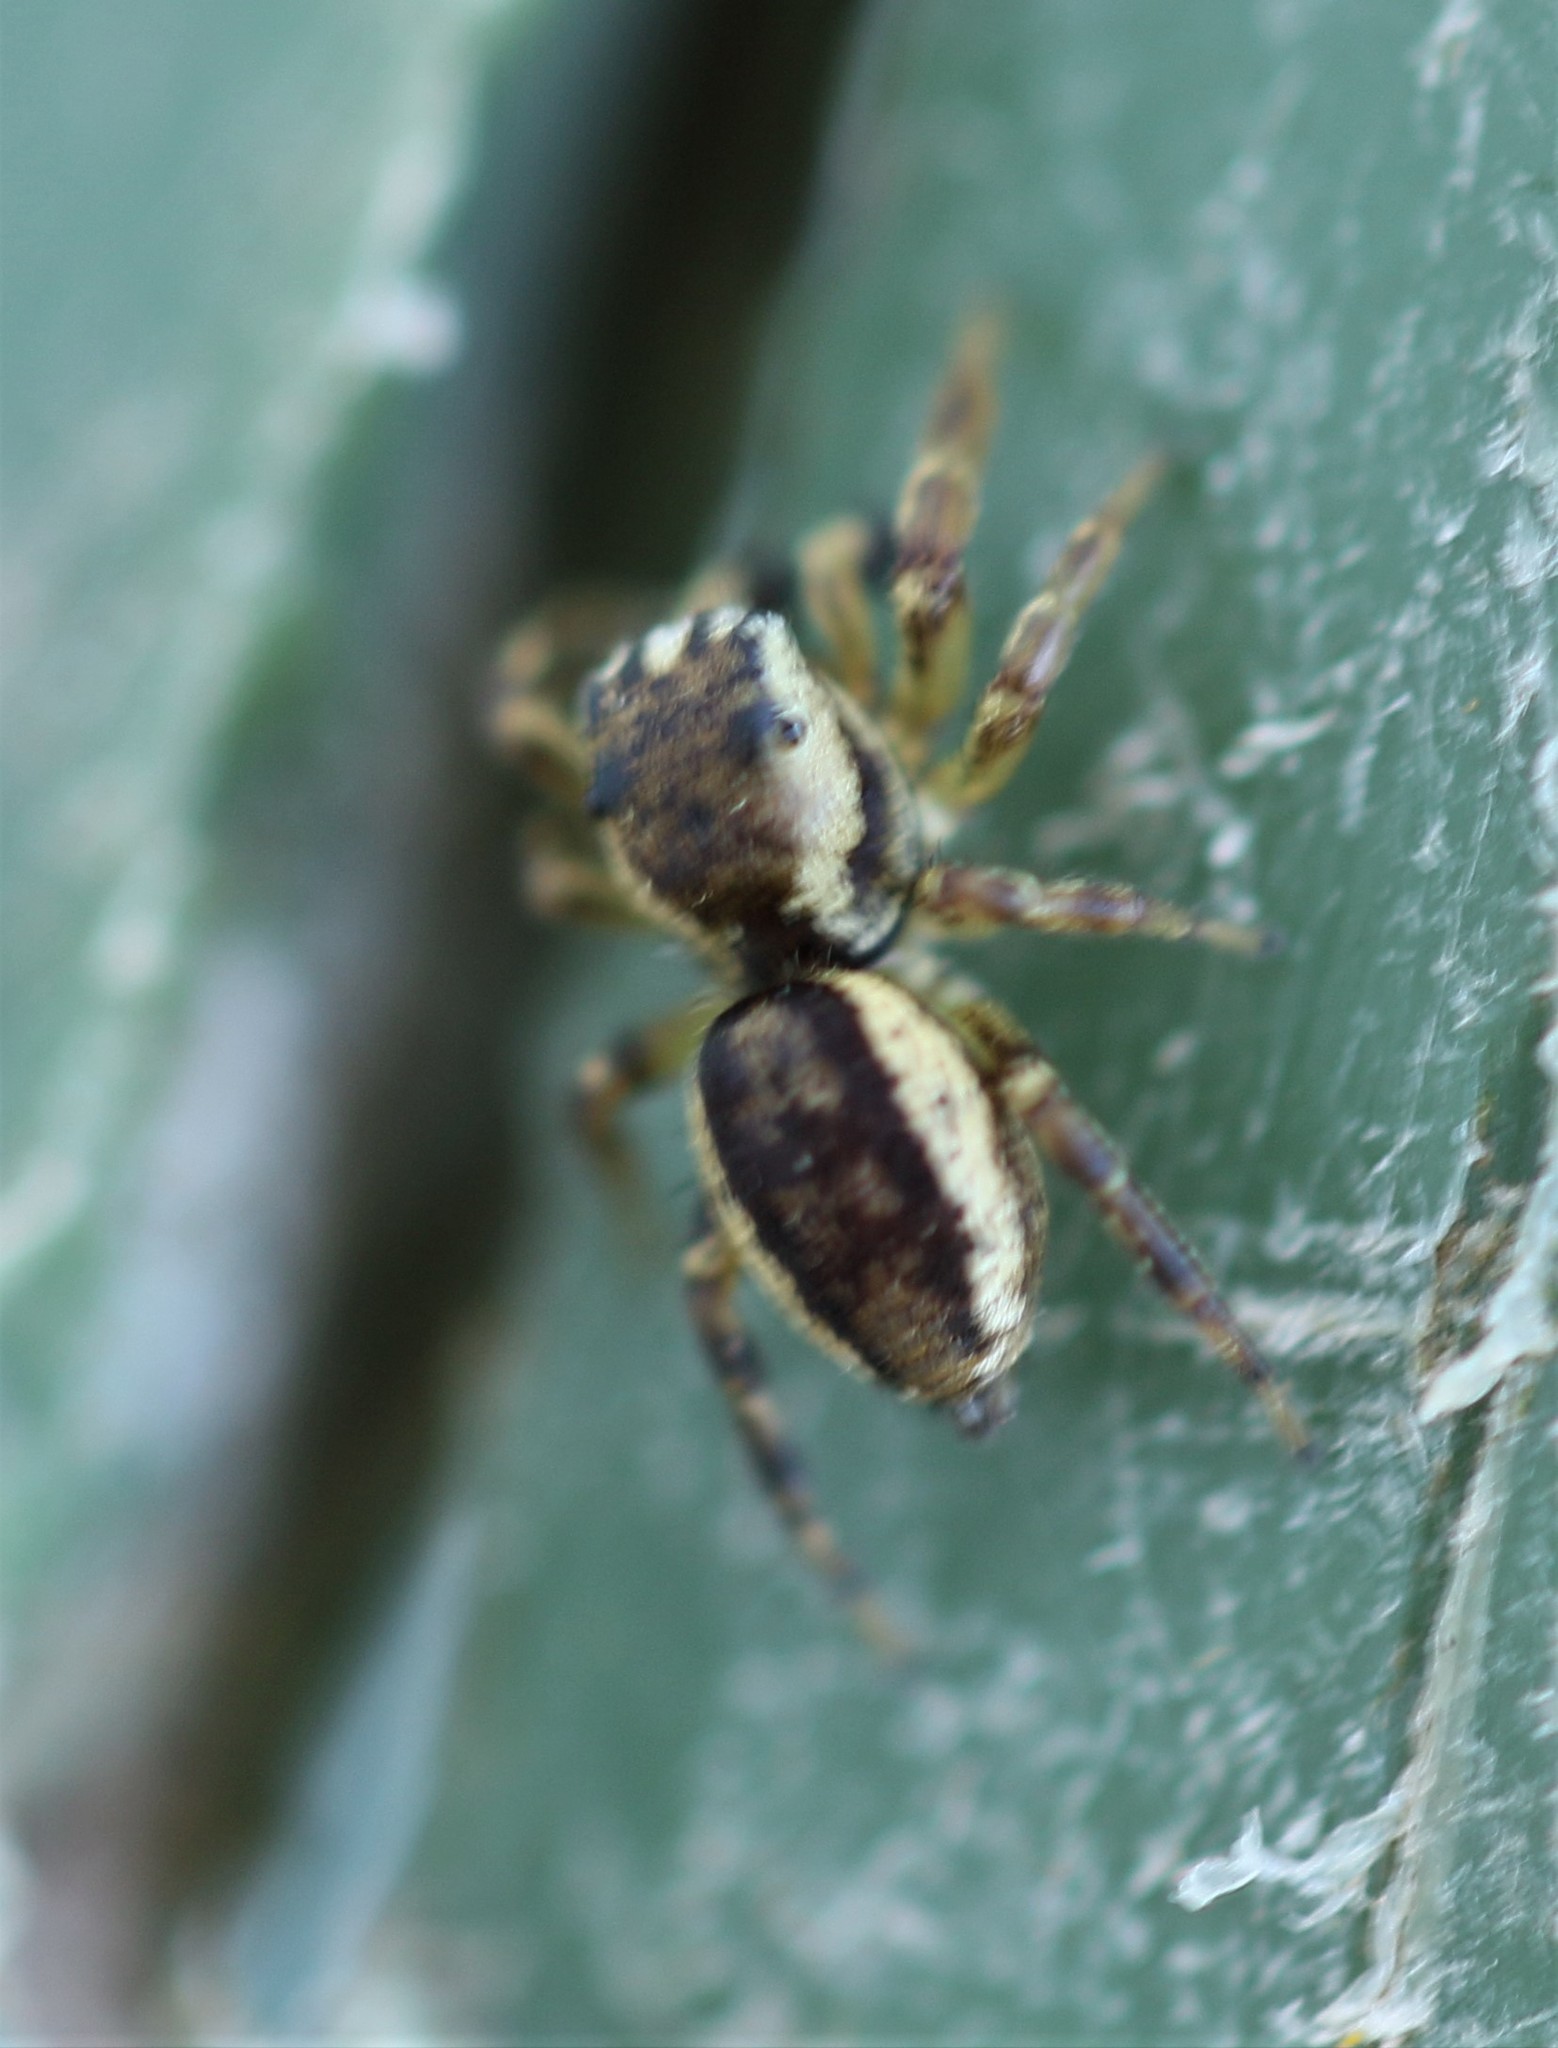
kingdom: Animalia
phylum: Arthropoda
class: Arachnida
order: Araneae
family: Salticidae
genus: Pelegrina
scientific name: Pelegrina flavipes
